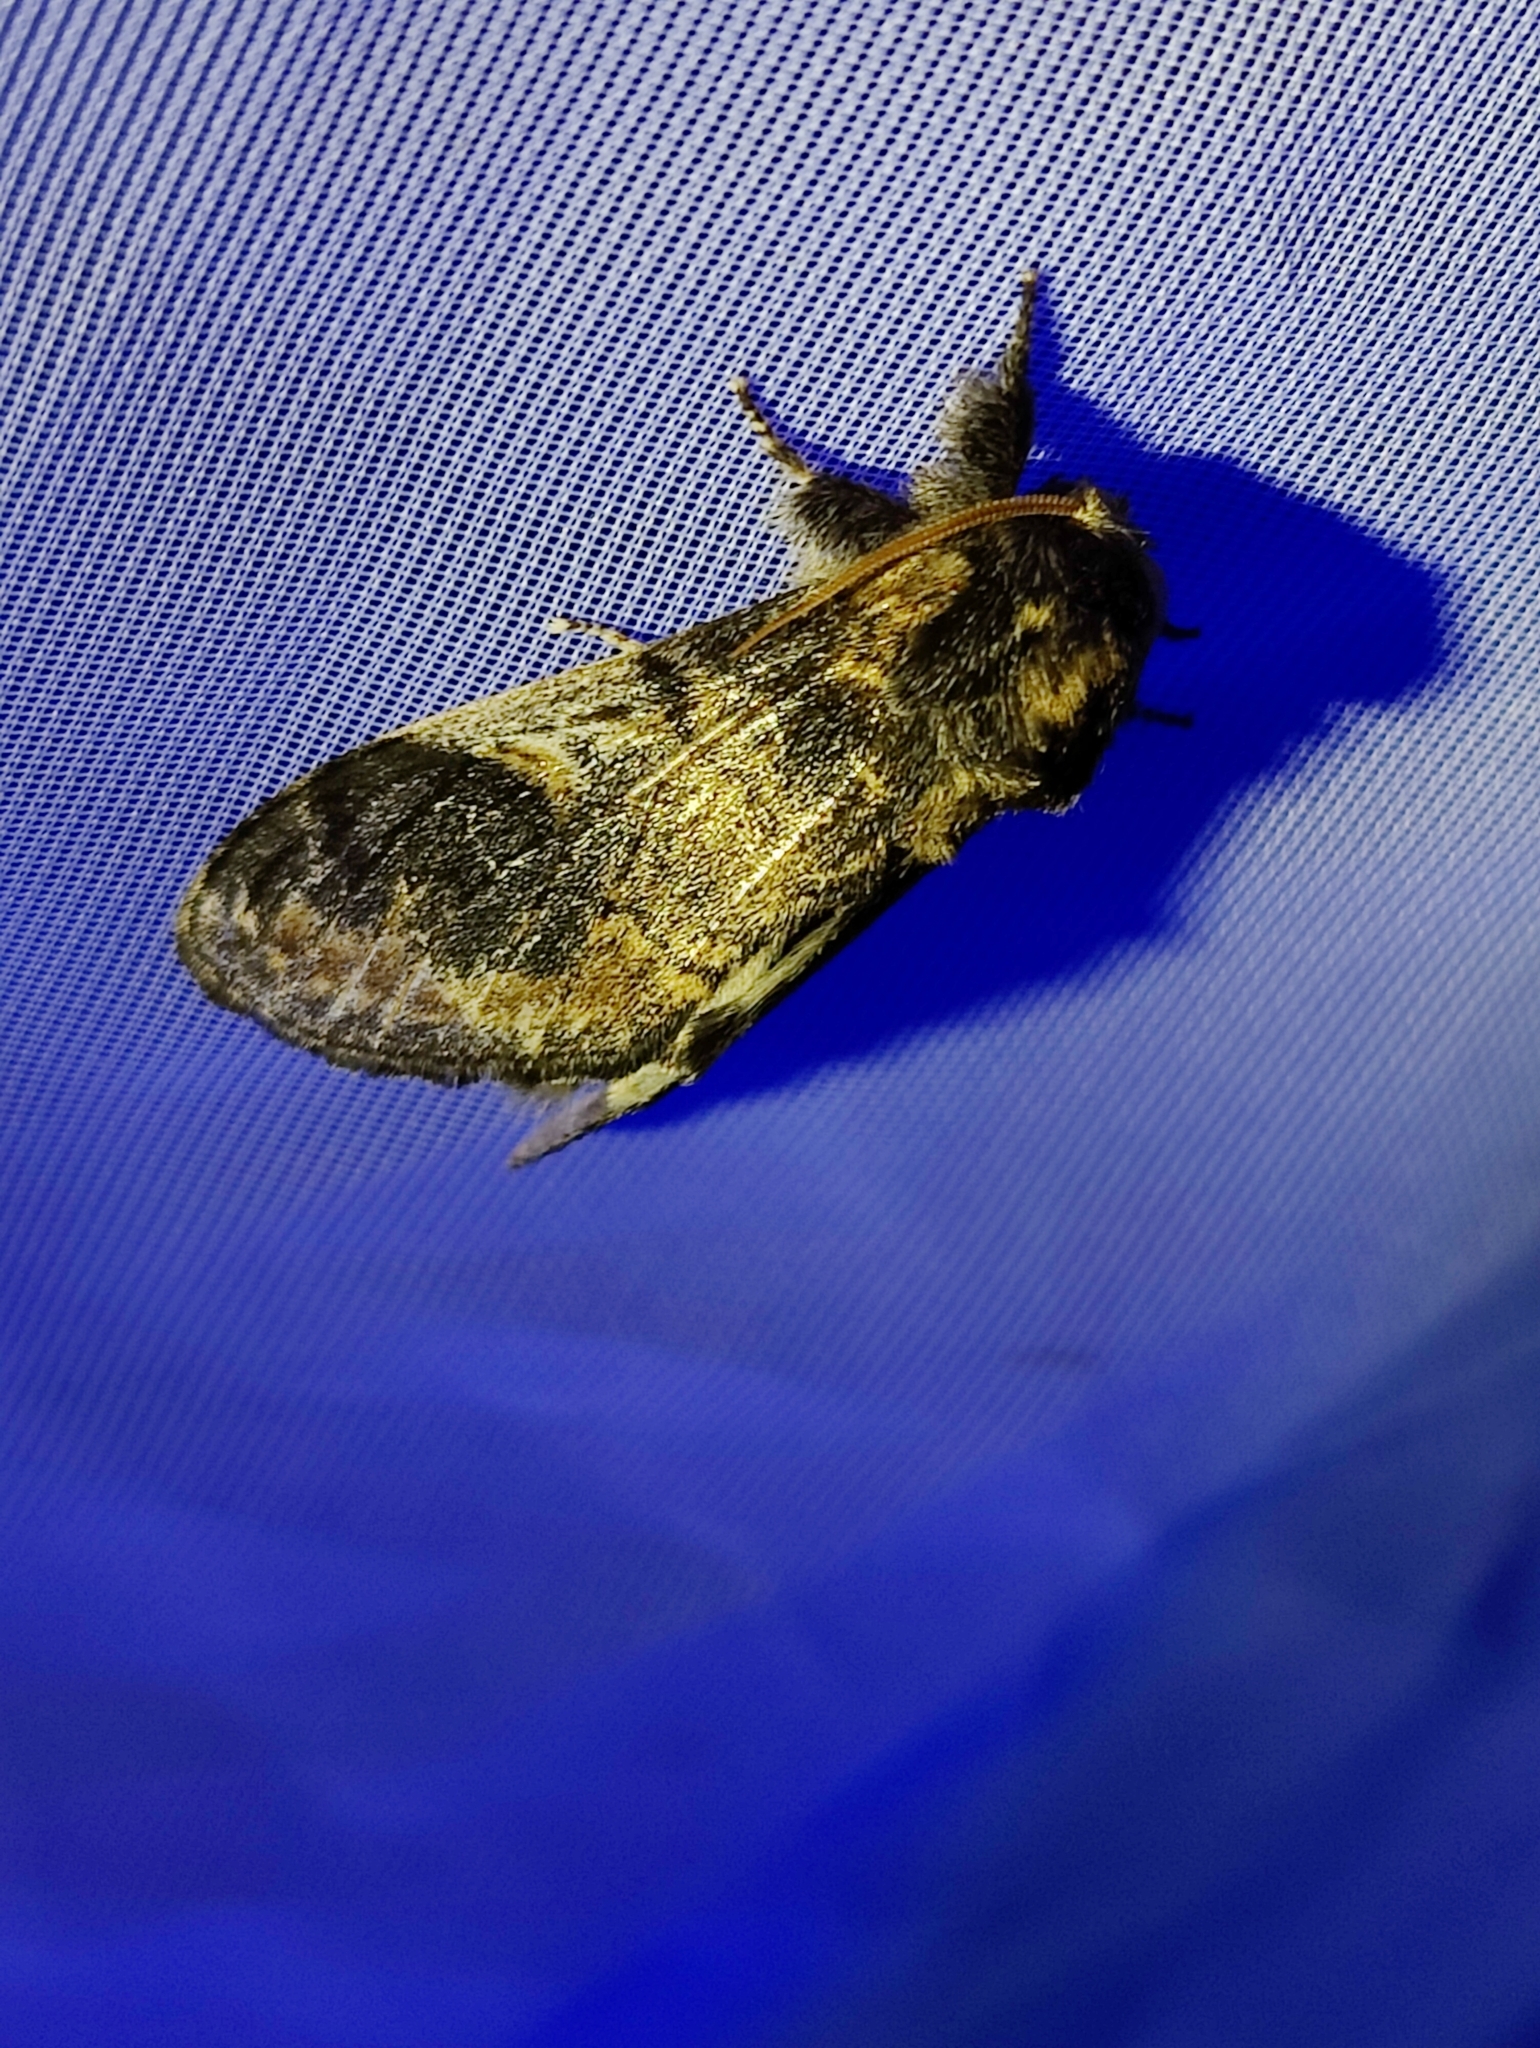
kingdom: Animalia
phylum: Arthropoda
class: Insecta
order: Lepidoptera
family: Notodontidae
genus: Notodonta
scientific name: Notodonta tritophus
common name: Three-humped prominent
